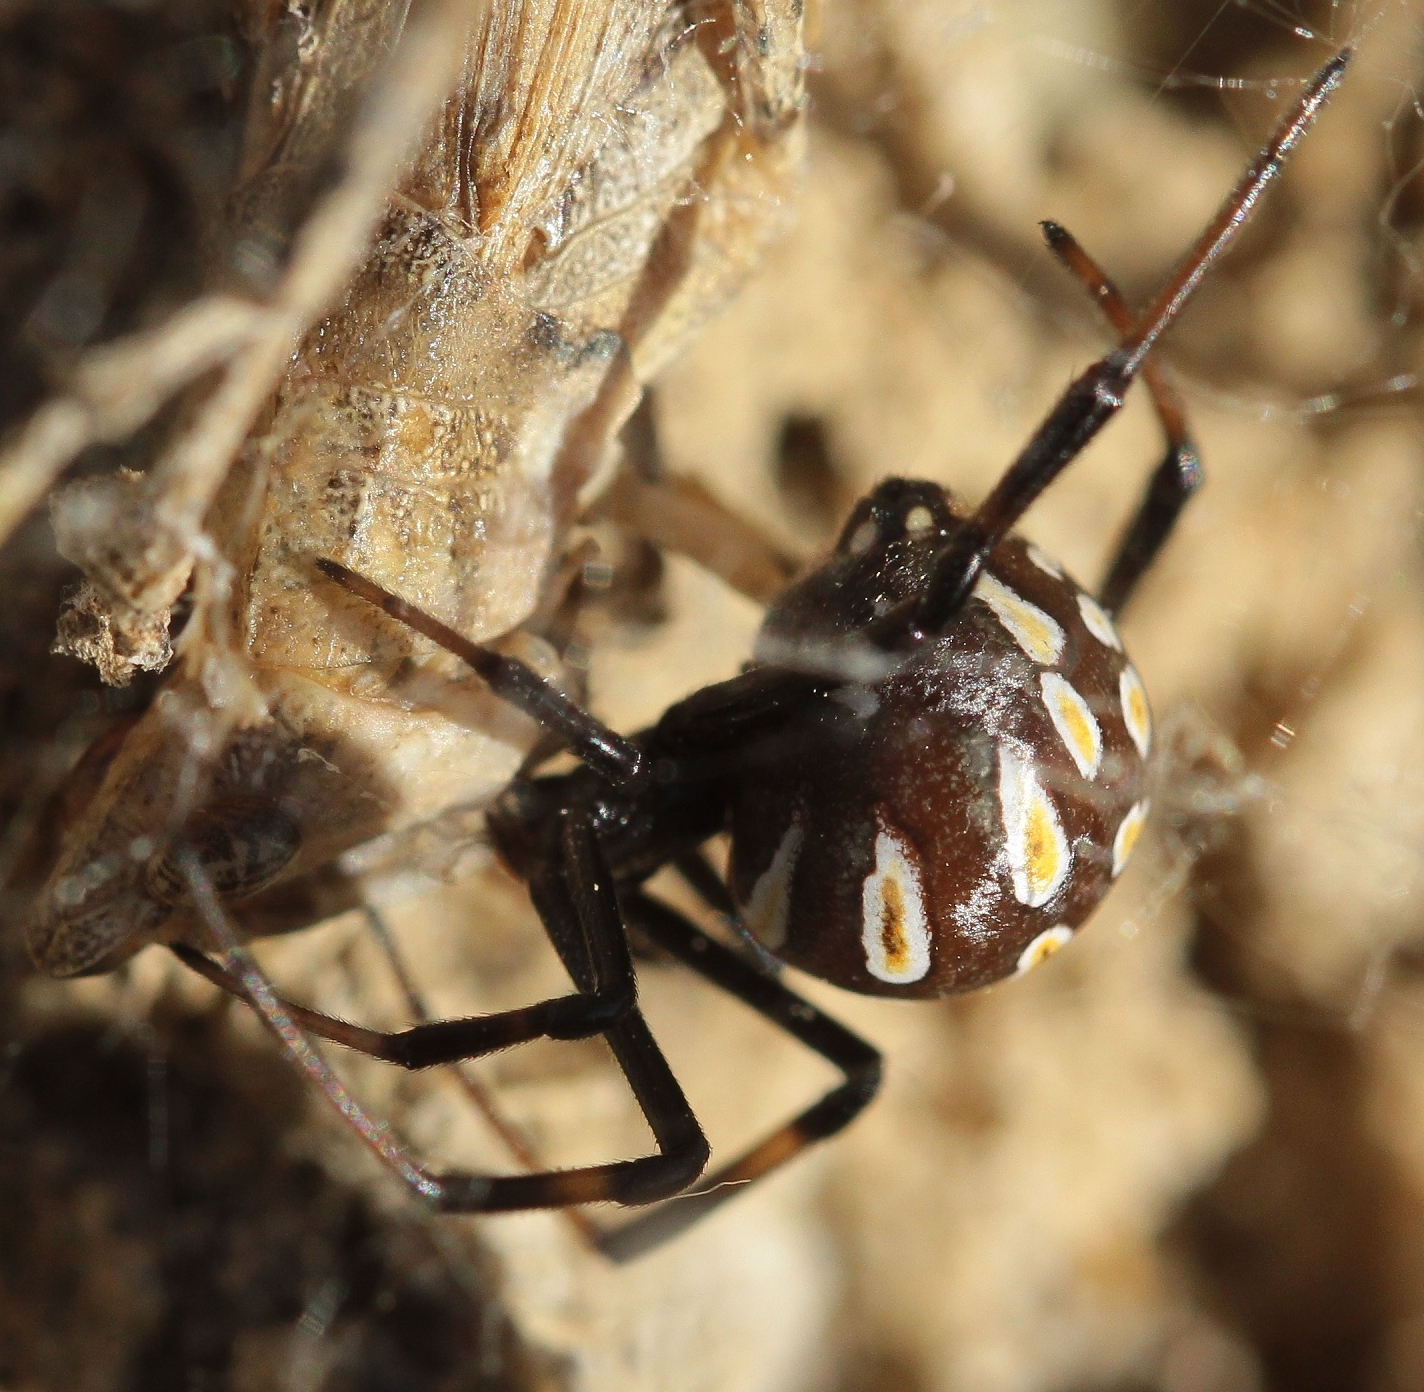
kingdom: Animalia
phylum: Arthropoda
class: Arachnida
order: Araneae
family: Theridiidae
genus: Latrodectus
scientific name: Latrodectus tredecimguttatus
